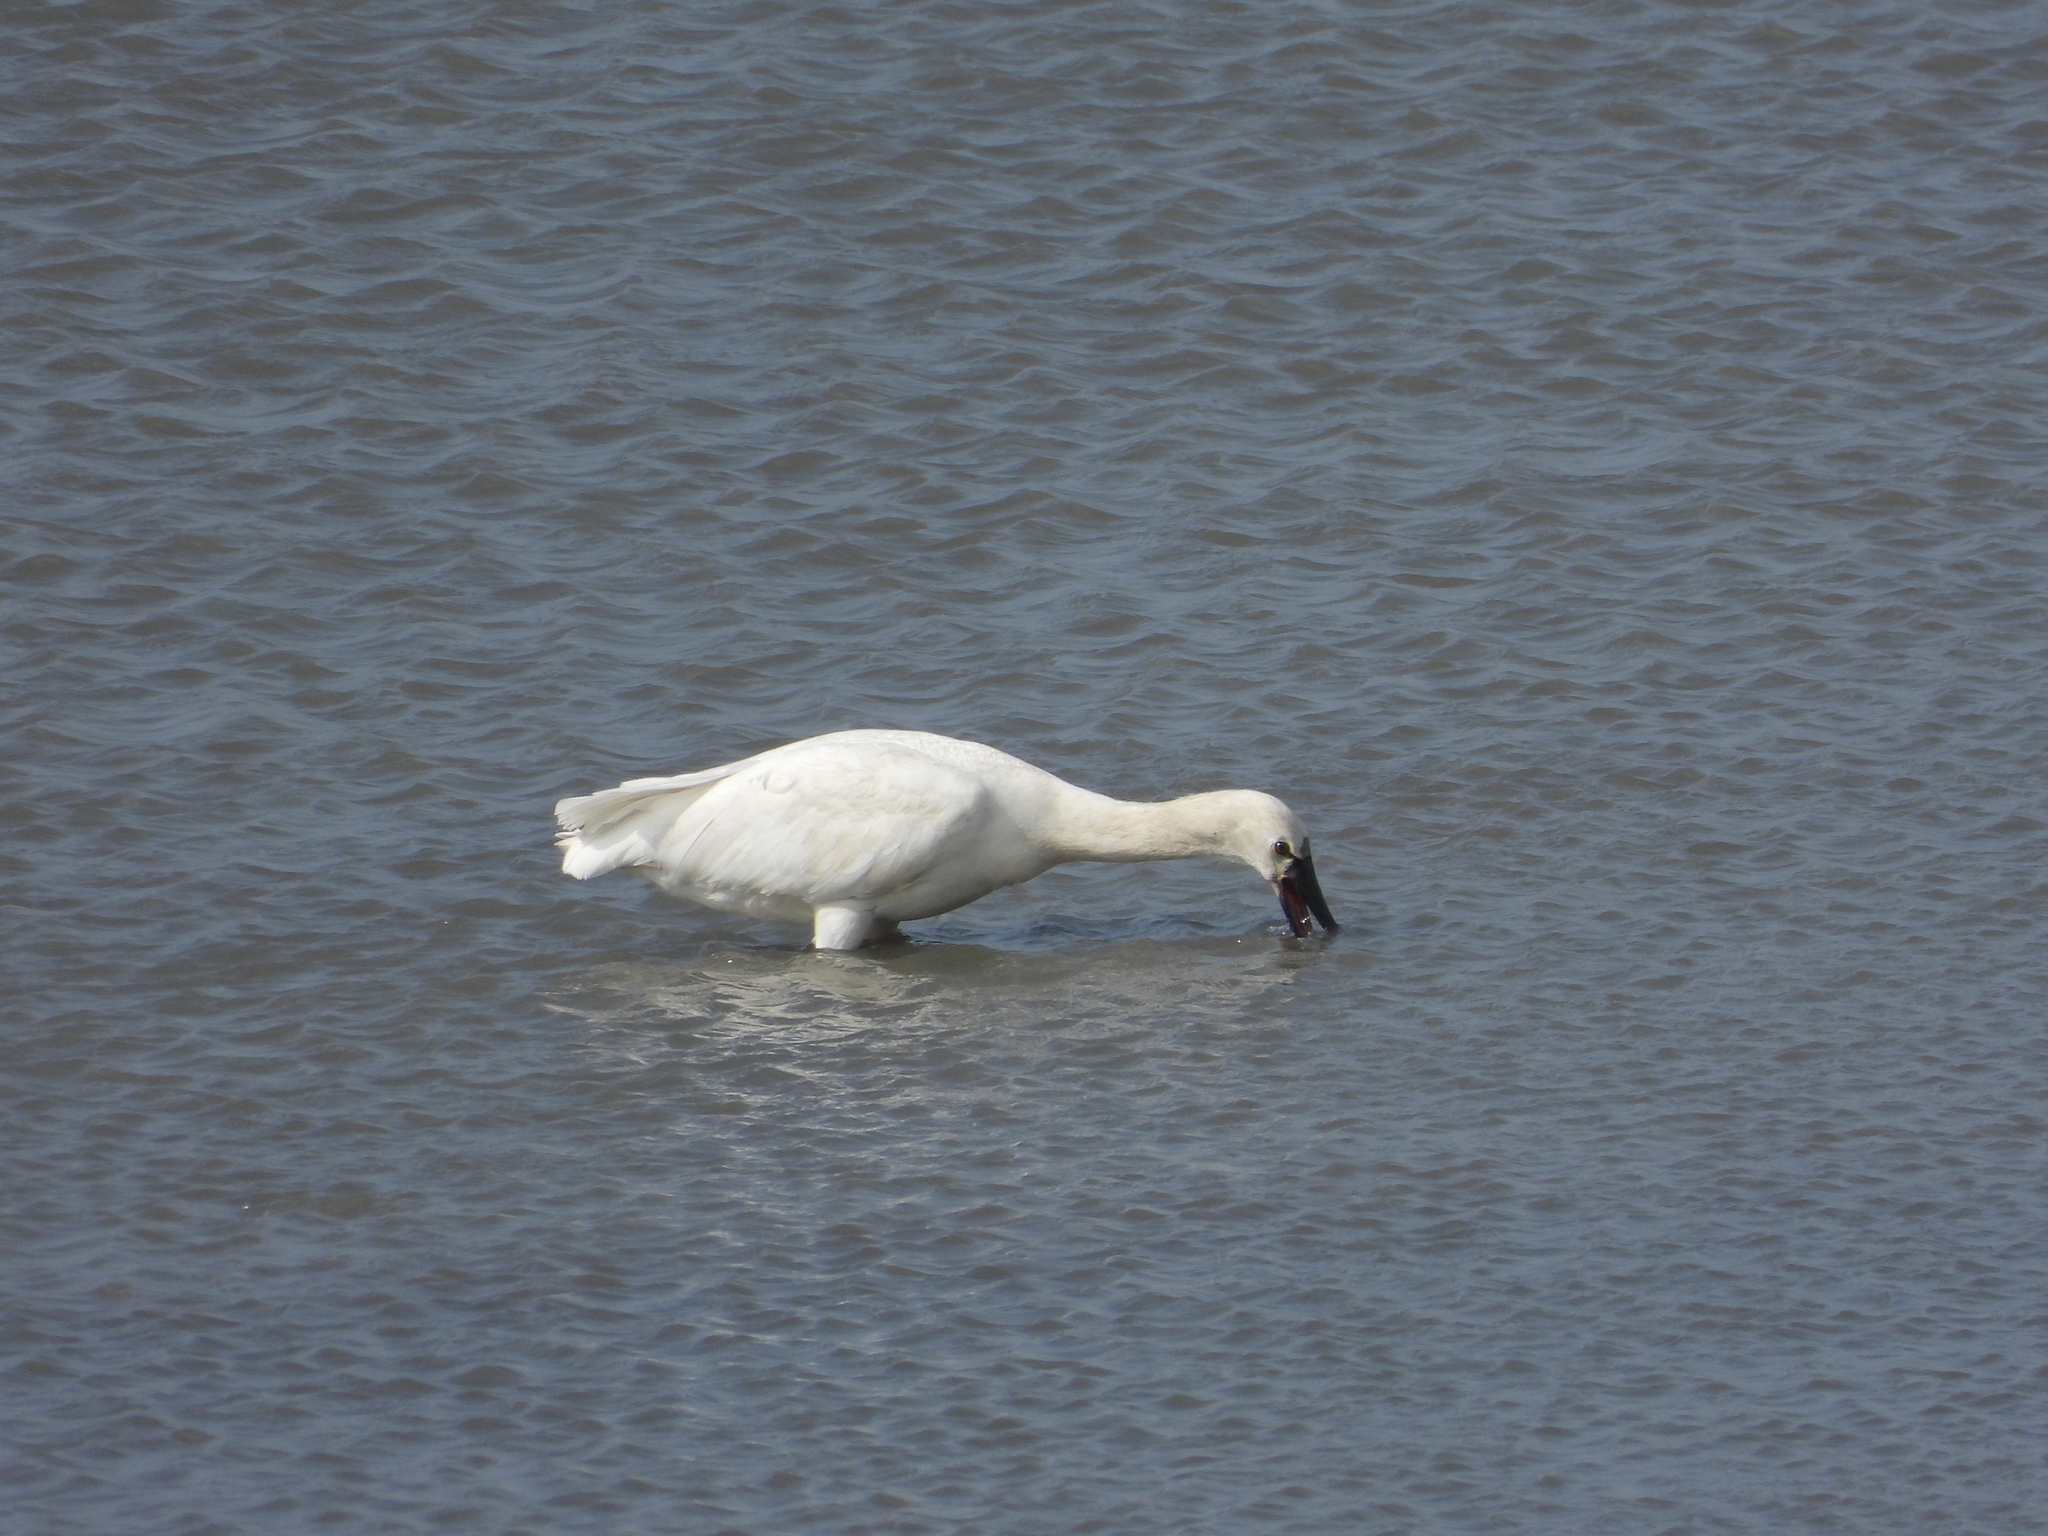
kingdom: Animalia
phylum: Chordata
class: Aves
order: Pelecaniformes
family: Threskiornithidae
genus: Platalea
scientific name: Platalea leucorodia
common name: Eurasian spoonbill
